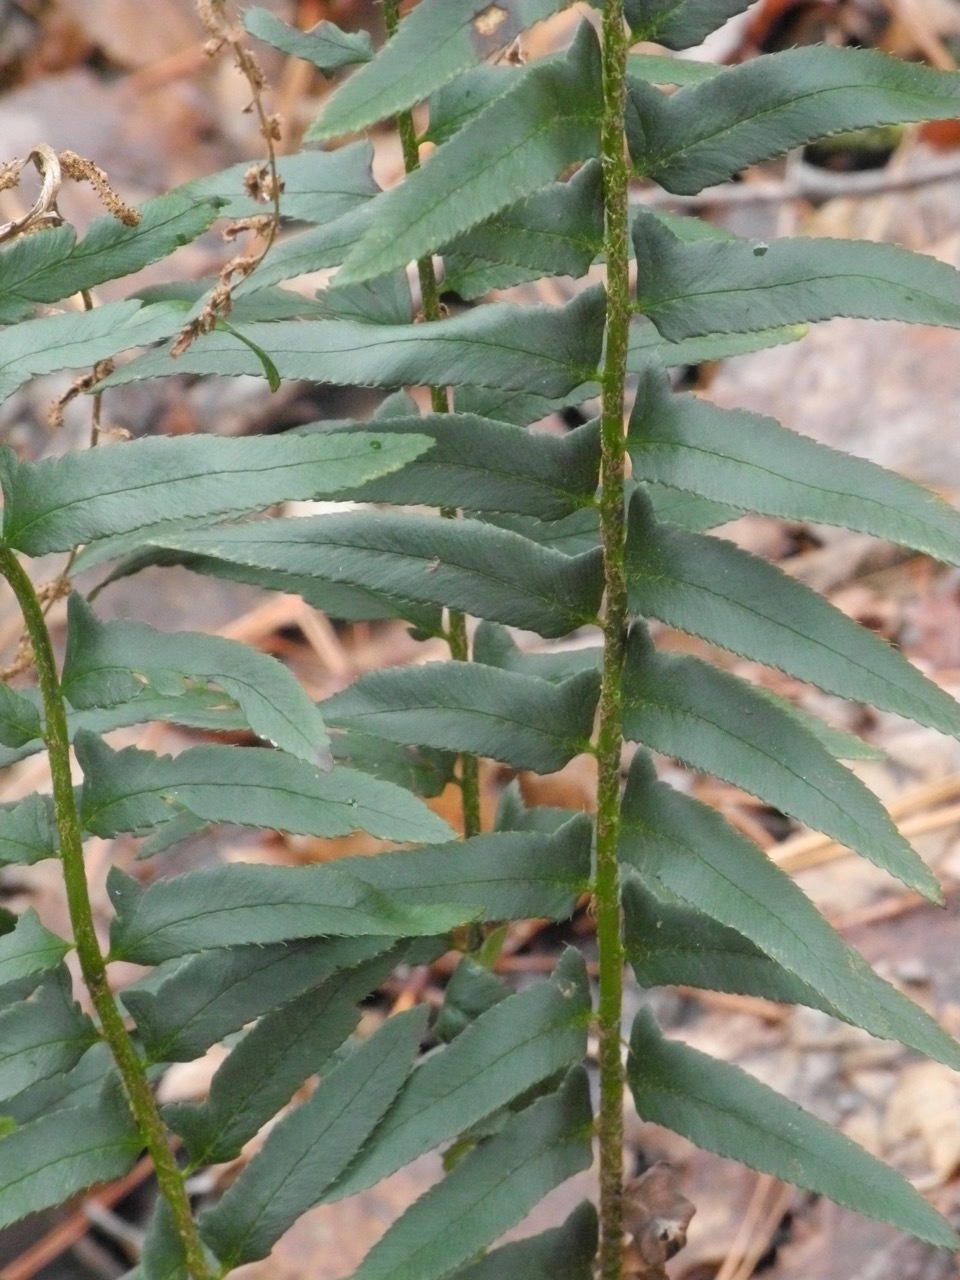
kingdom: Plantae
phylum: Tracheophyta
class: Polypodiopsida
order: Polypodiales
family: Dryopteridaceae
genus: Polystichum
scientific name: Polystichum acrostichoides
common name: Christmas fern
